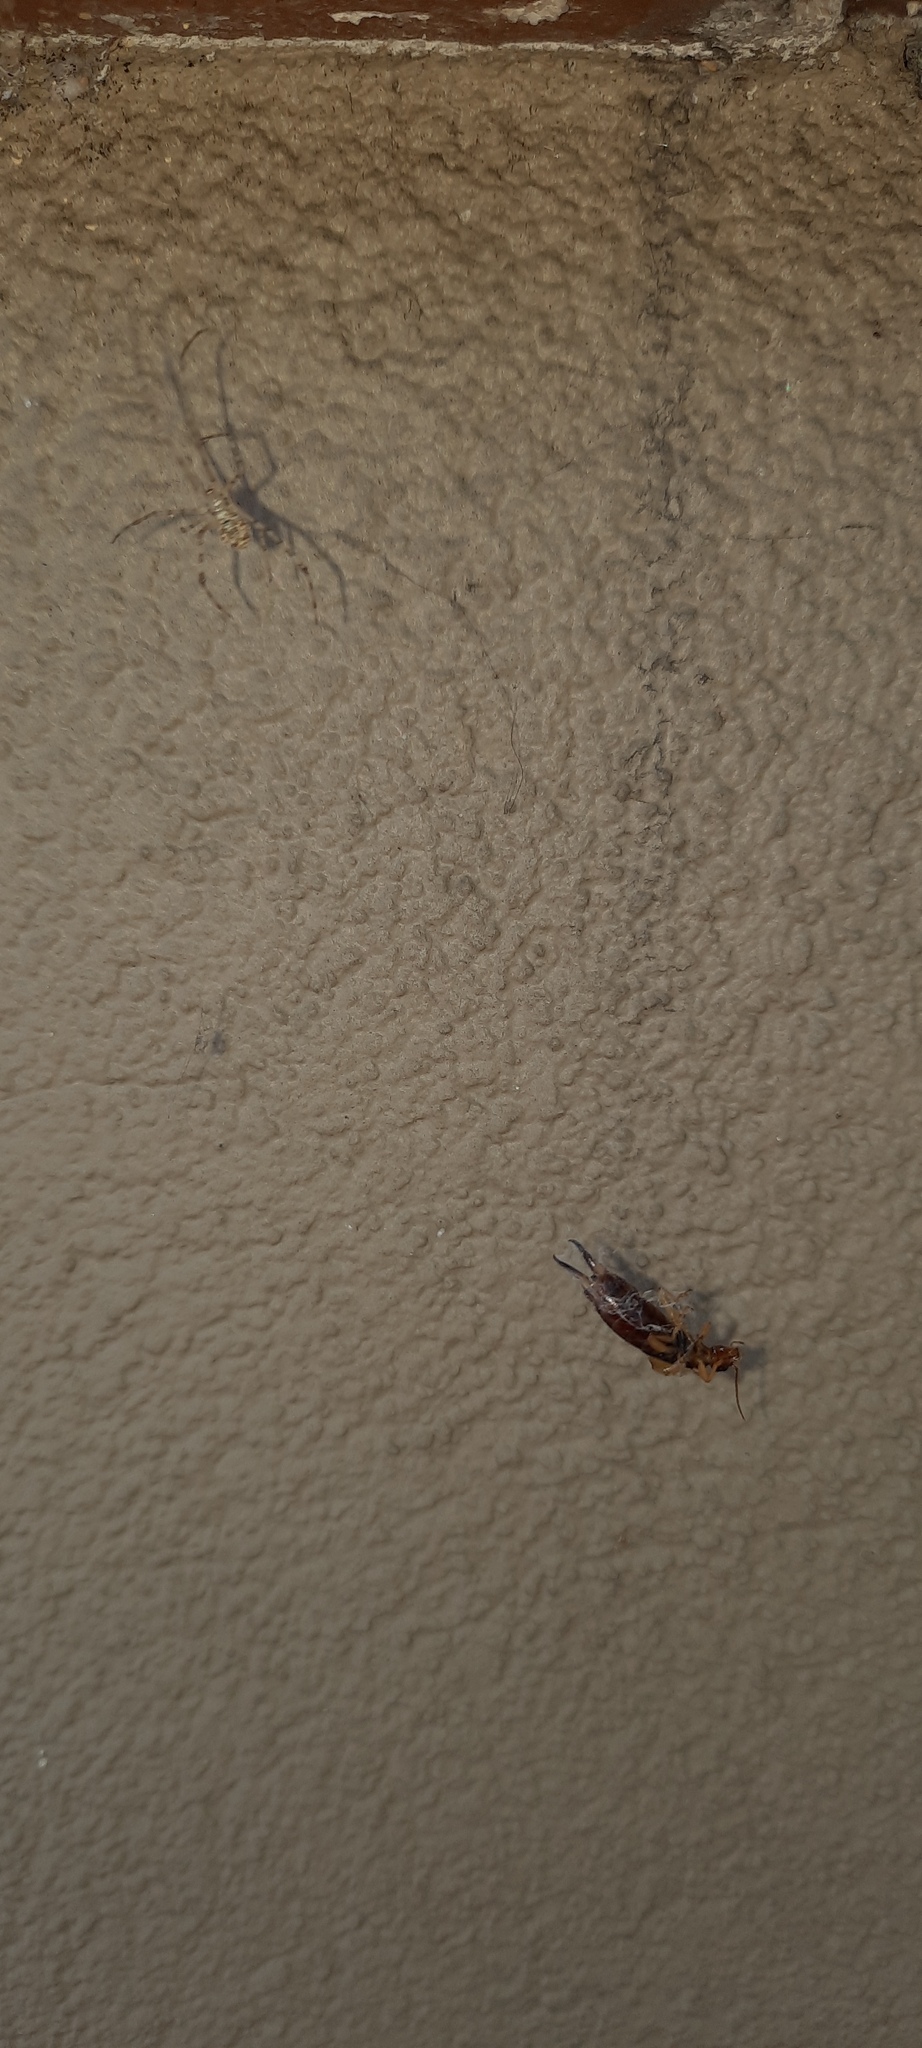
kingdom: Animalia
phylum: Arthropoda
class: Insecta
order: Dermaptera
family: Forficulidae
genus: Forficula
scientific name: Forficula dentata
